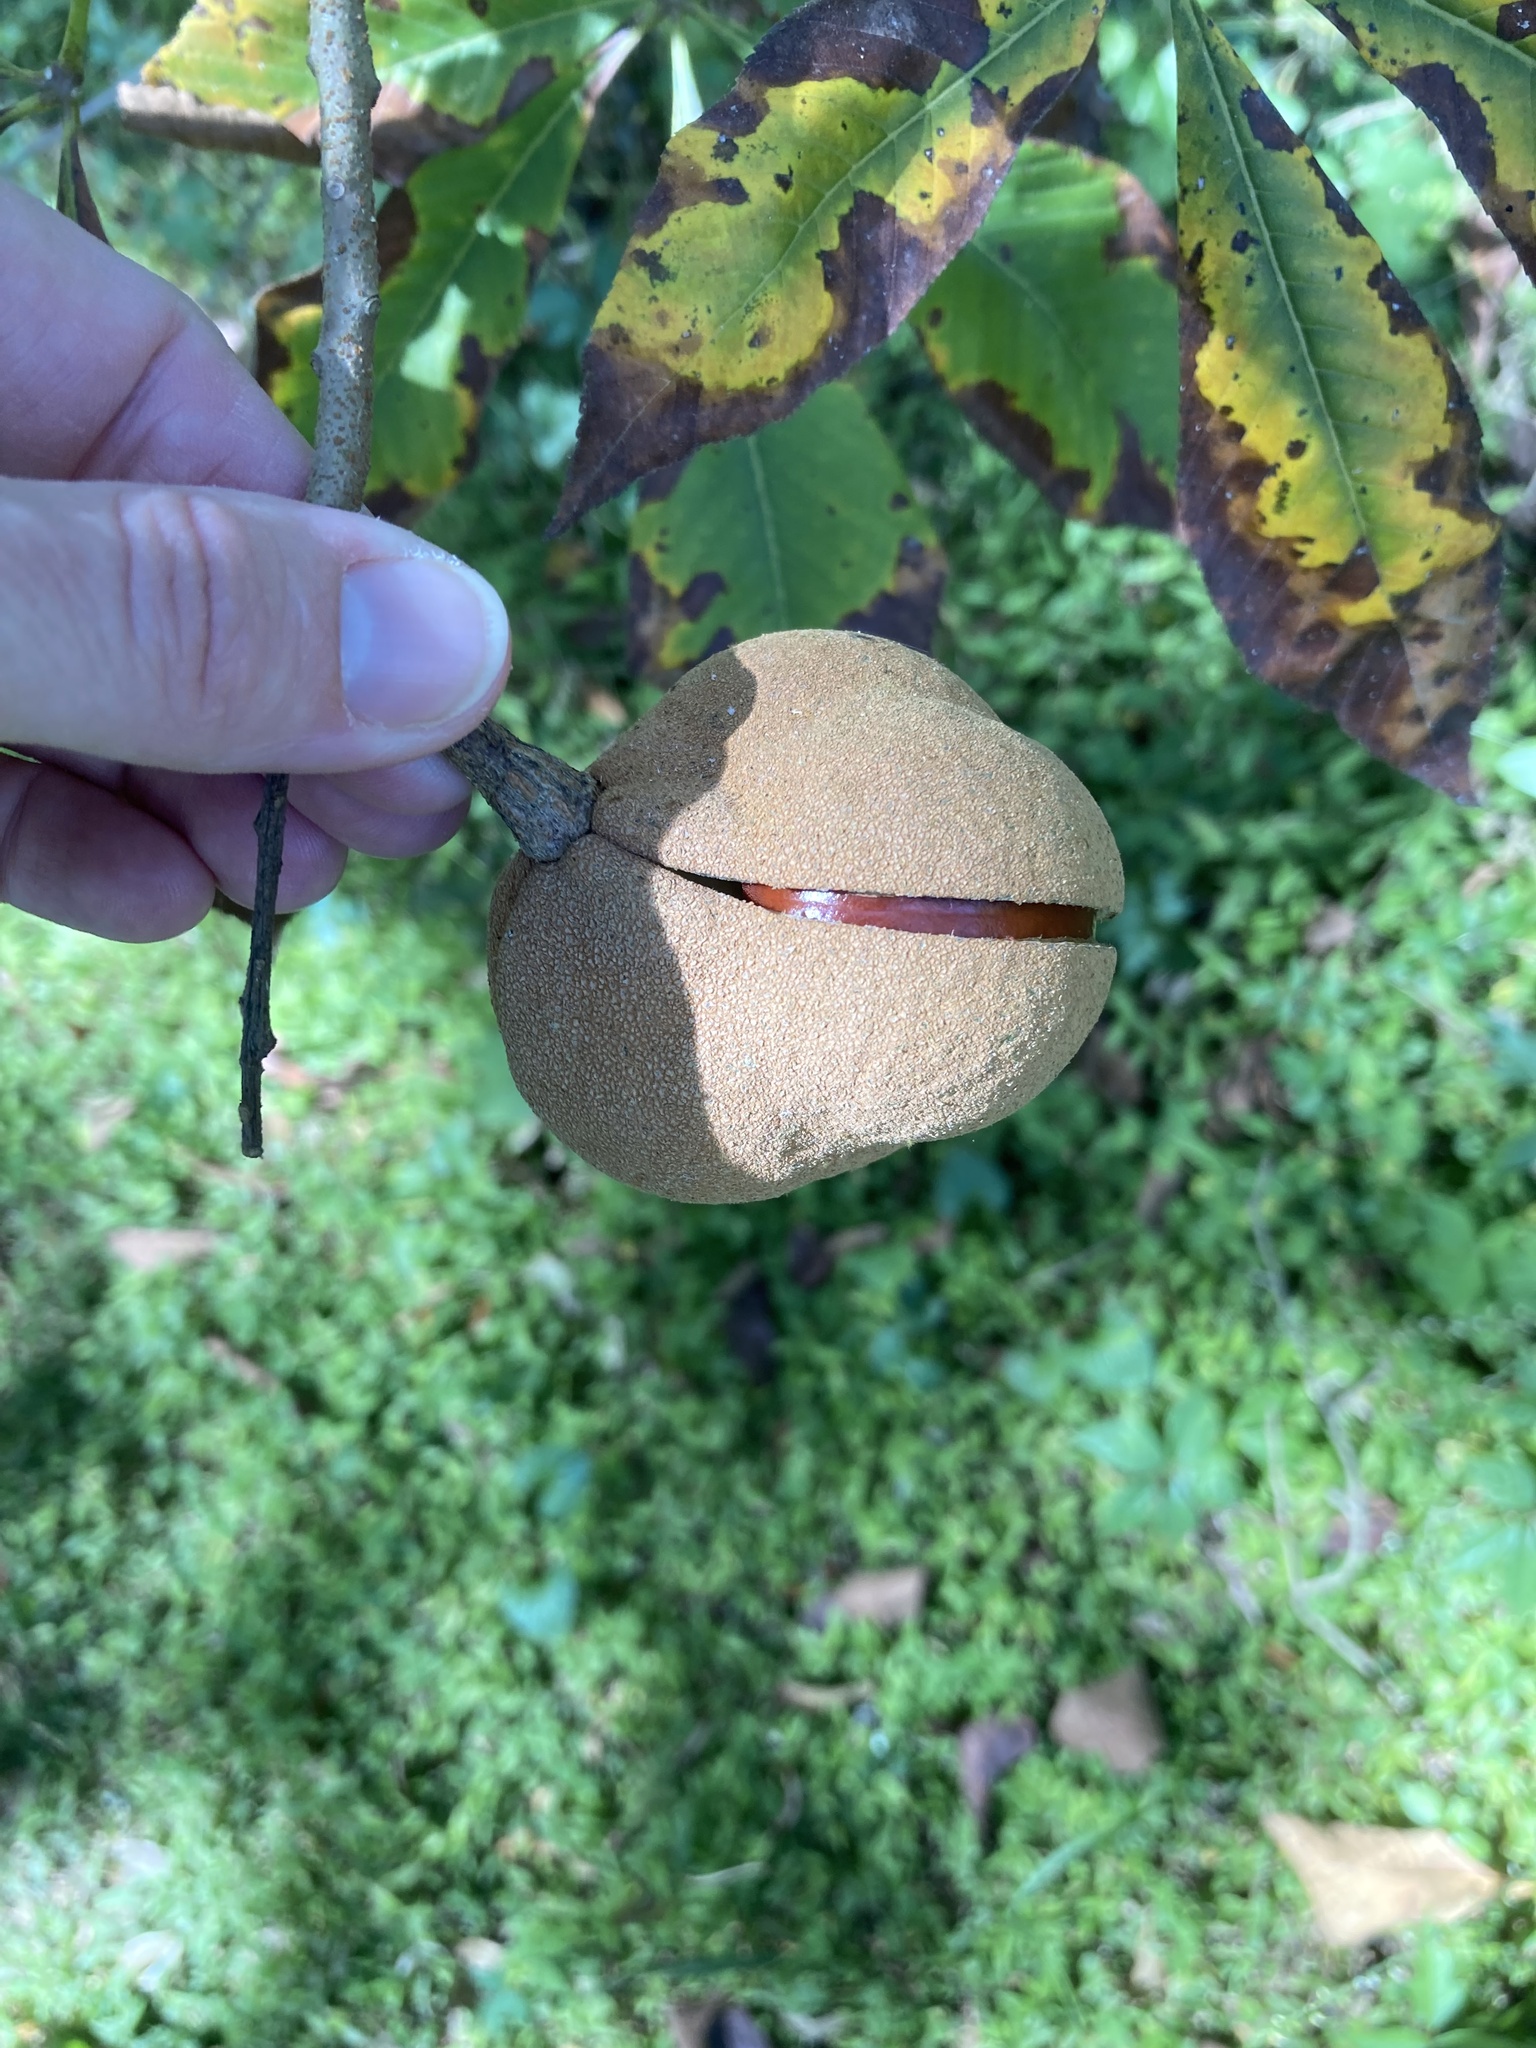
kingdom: Plantae
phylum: Tracheophyta
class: Magnoliopsida
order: Sapindales
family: Sapindaceae
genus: Aesculus
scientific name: Aesculus pavia
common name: Red buckeye
